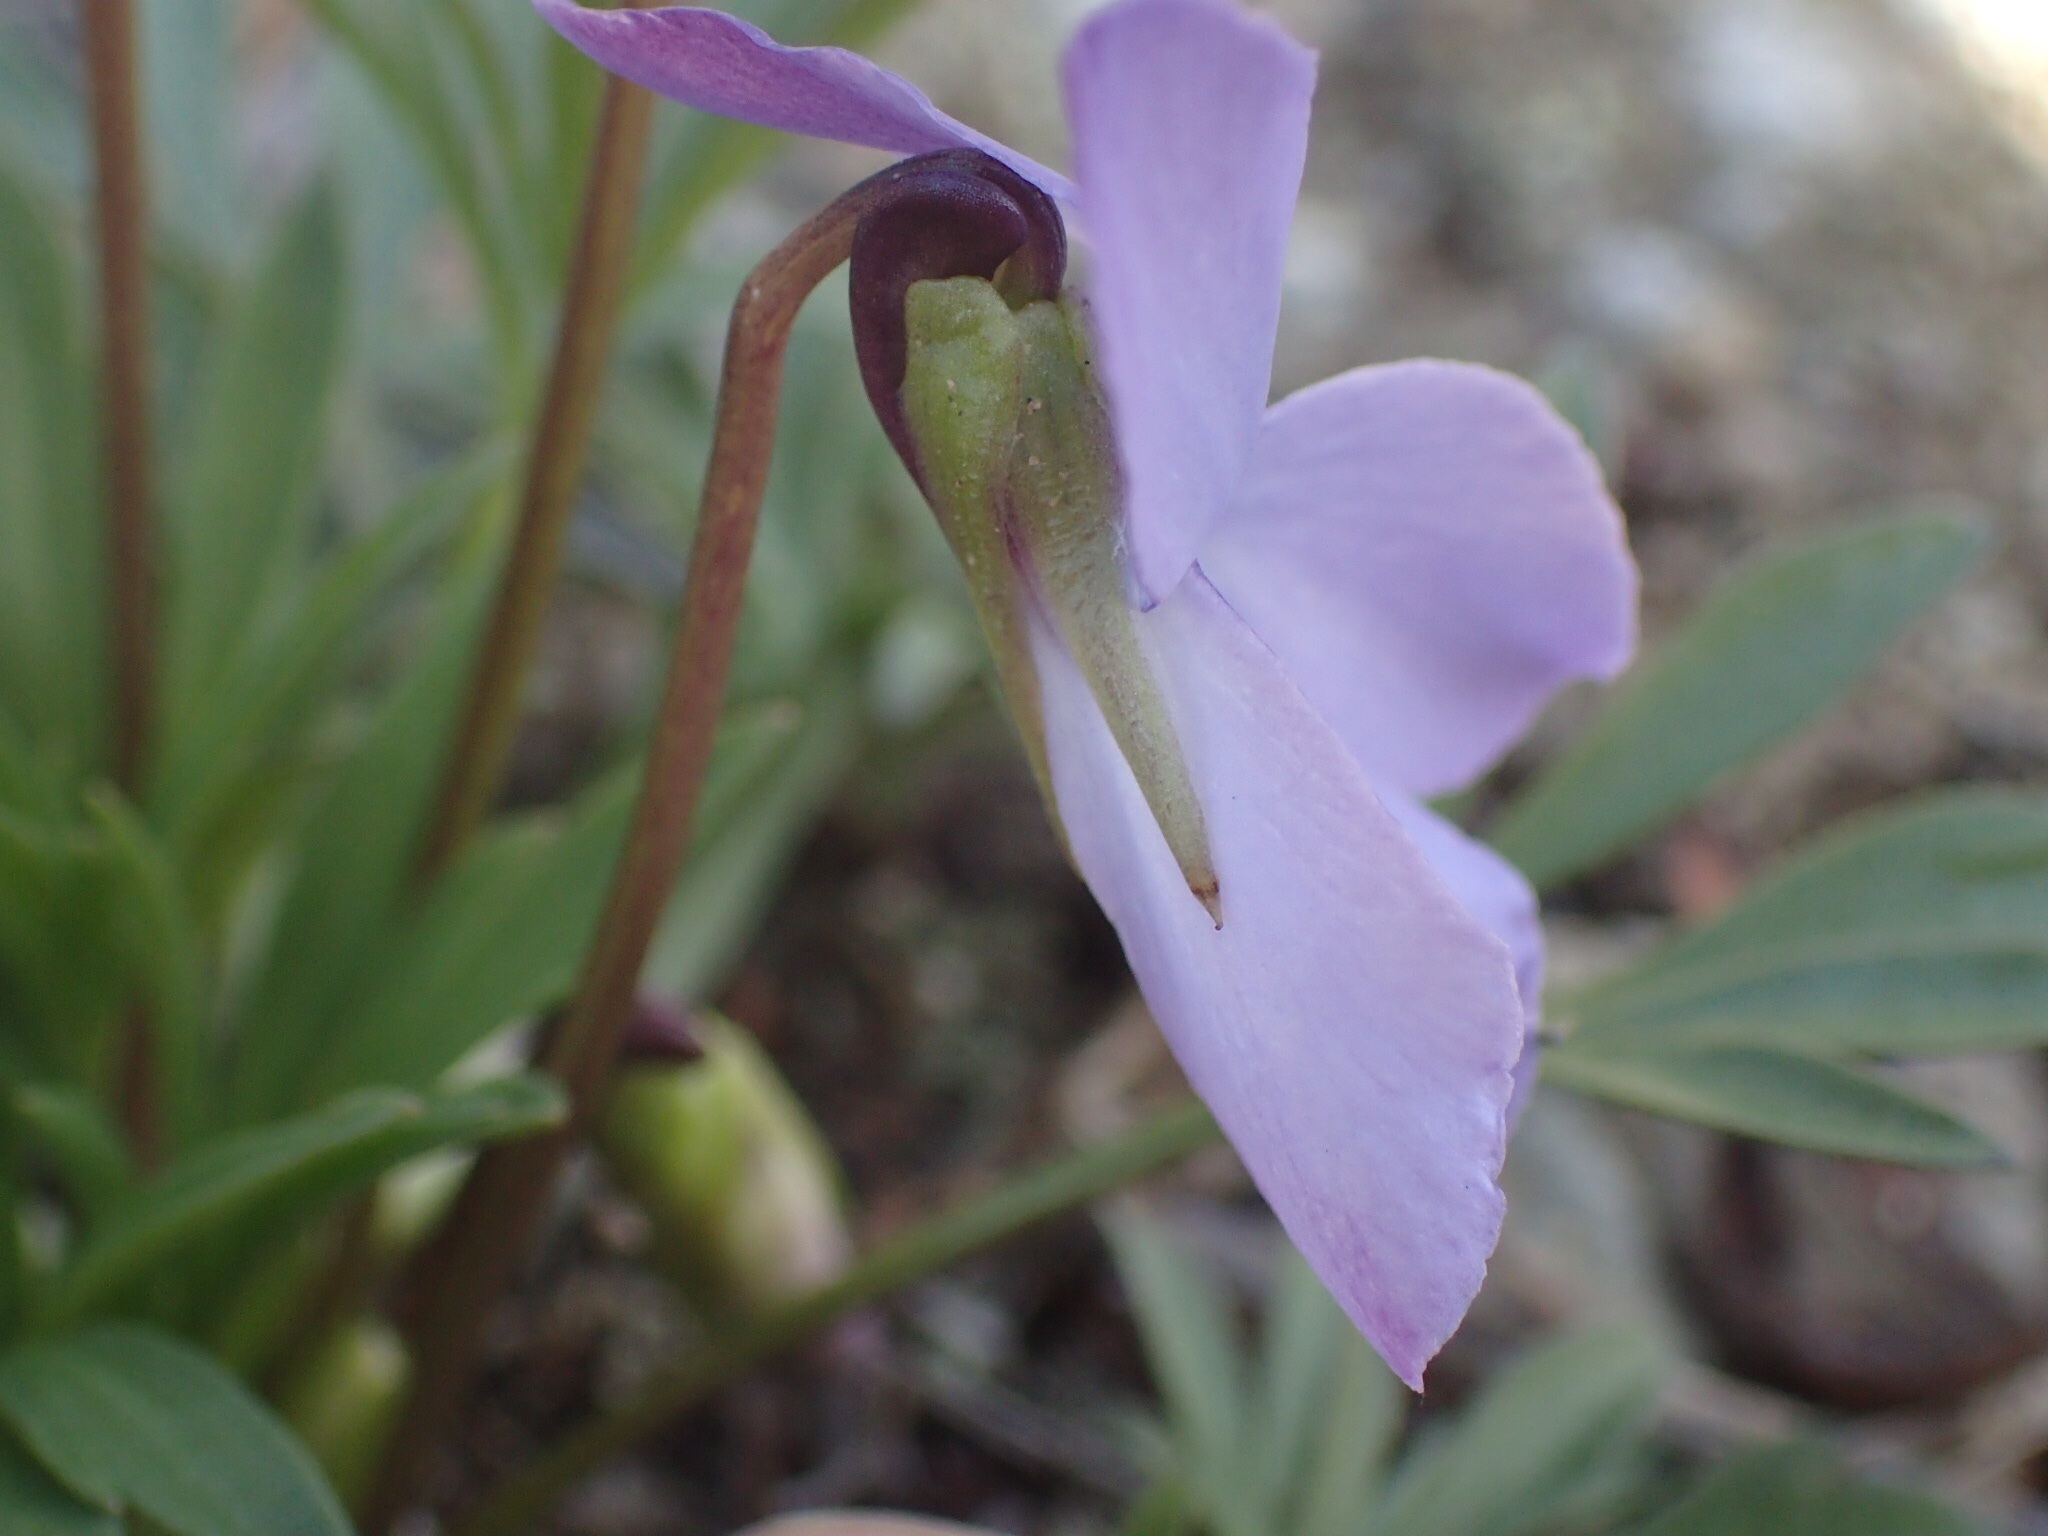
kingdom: Plantae
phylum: Tracheophyta
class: Magnoliopsida
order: Malpighiales
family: Violaceae
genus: Viola
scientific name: Viola pedata
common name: Pansy violet
